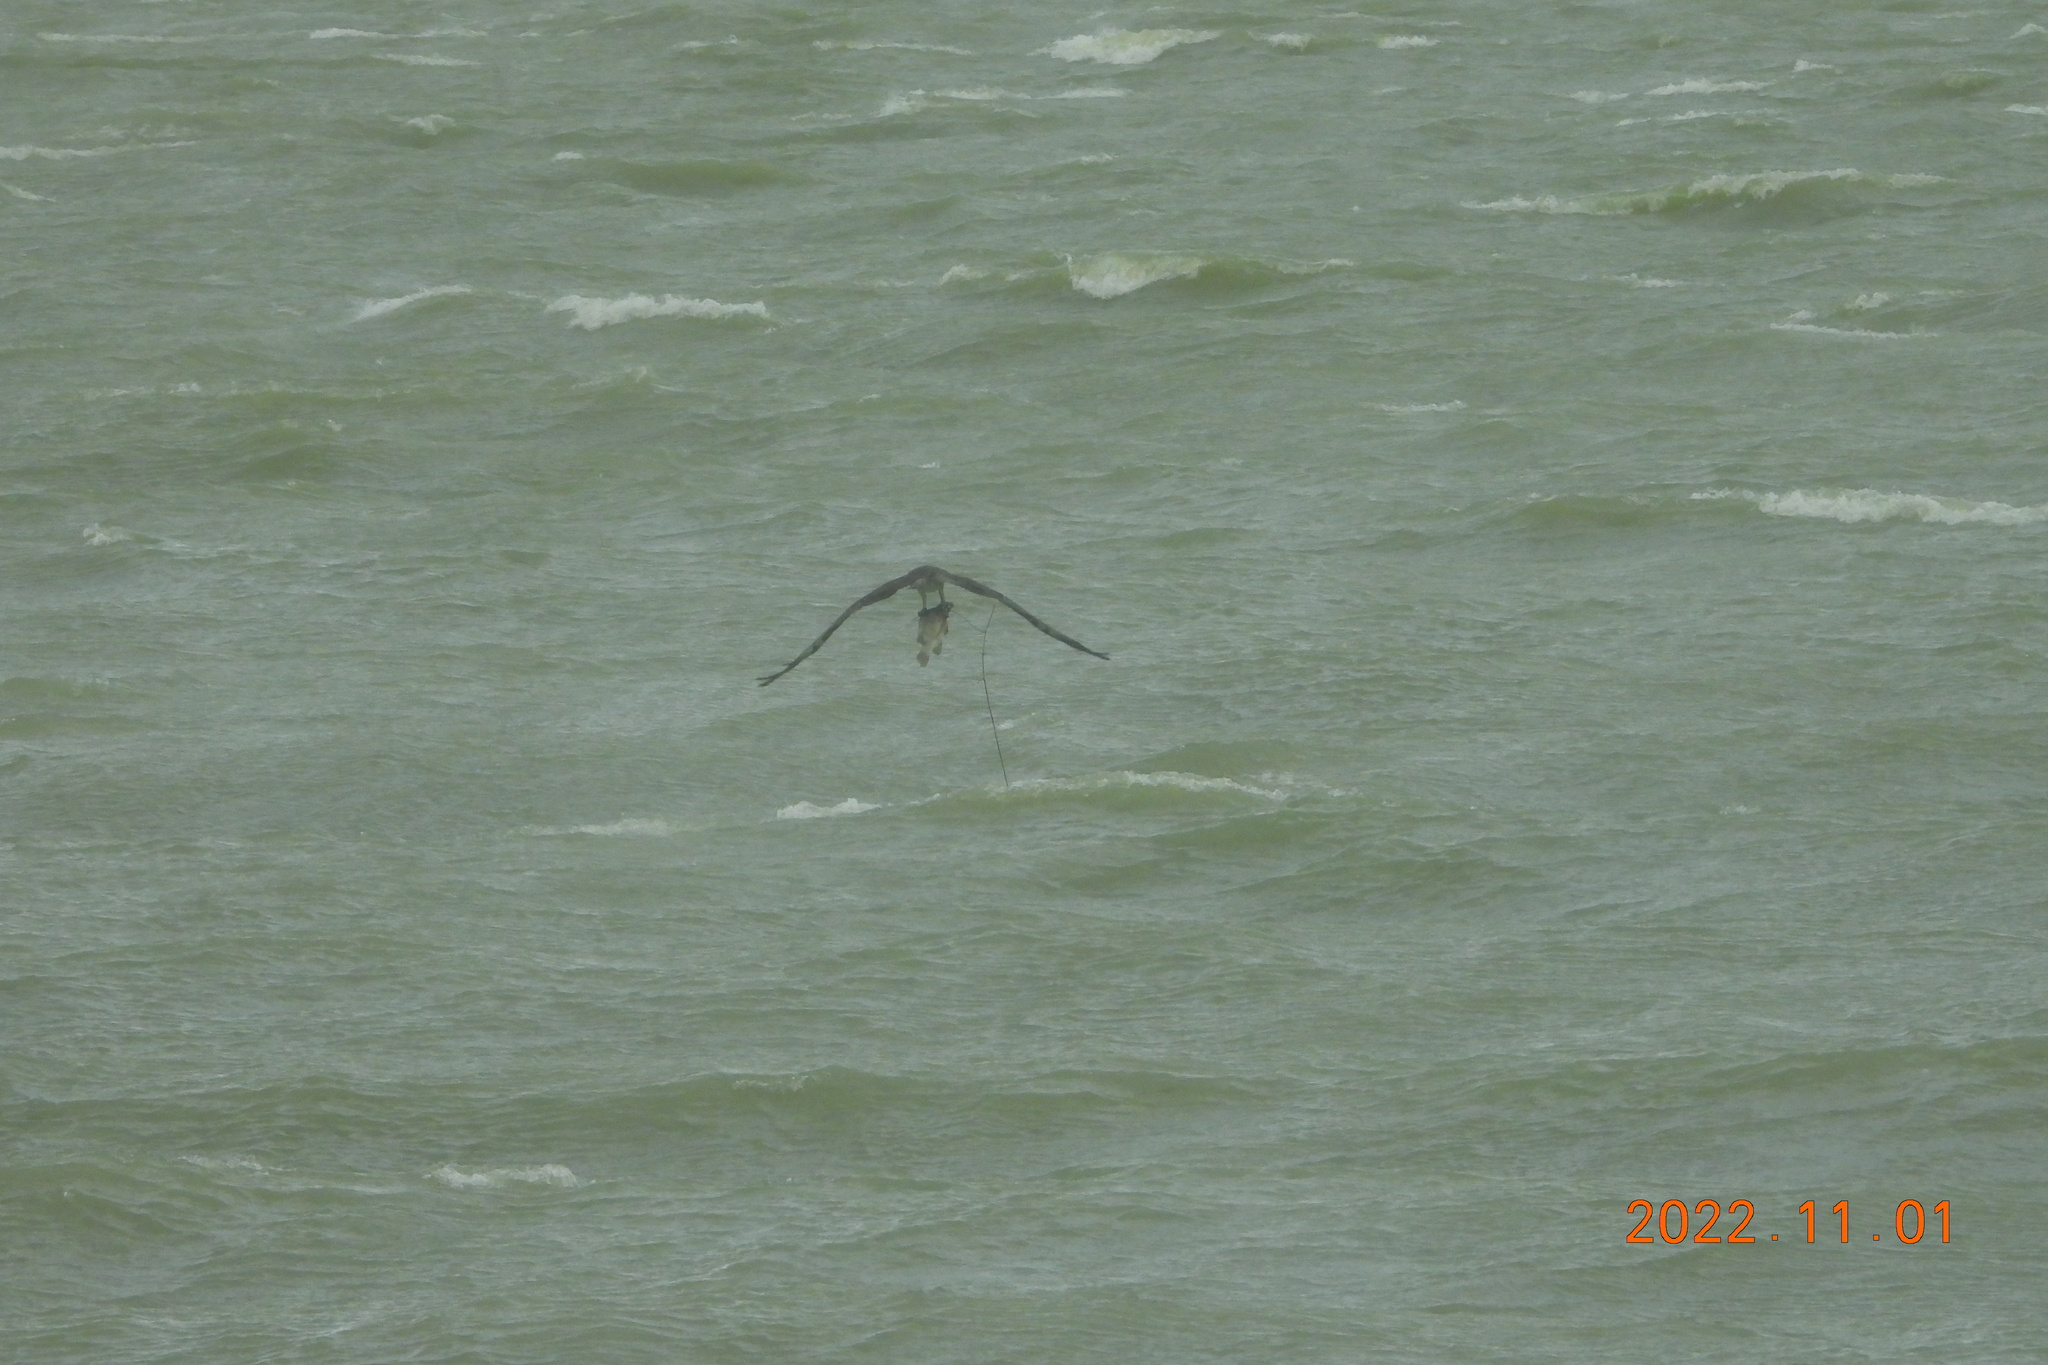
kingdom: Animalia
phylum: Chordata
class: Aves
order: Accipitriformes
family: Pandionidae
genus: Pandion
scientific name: Pandion haliaetus
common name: Osprey
